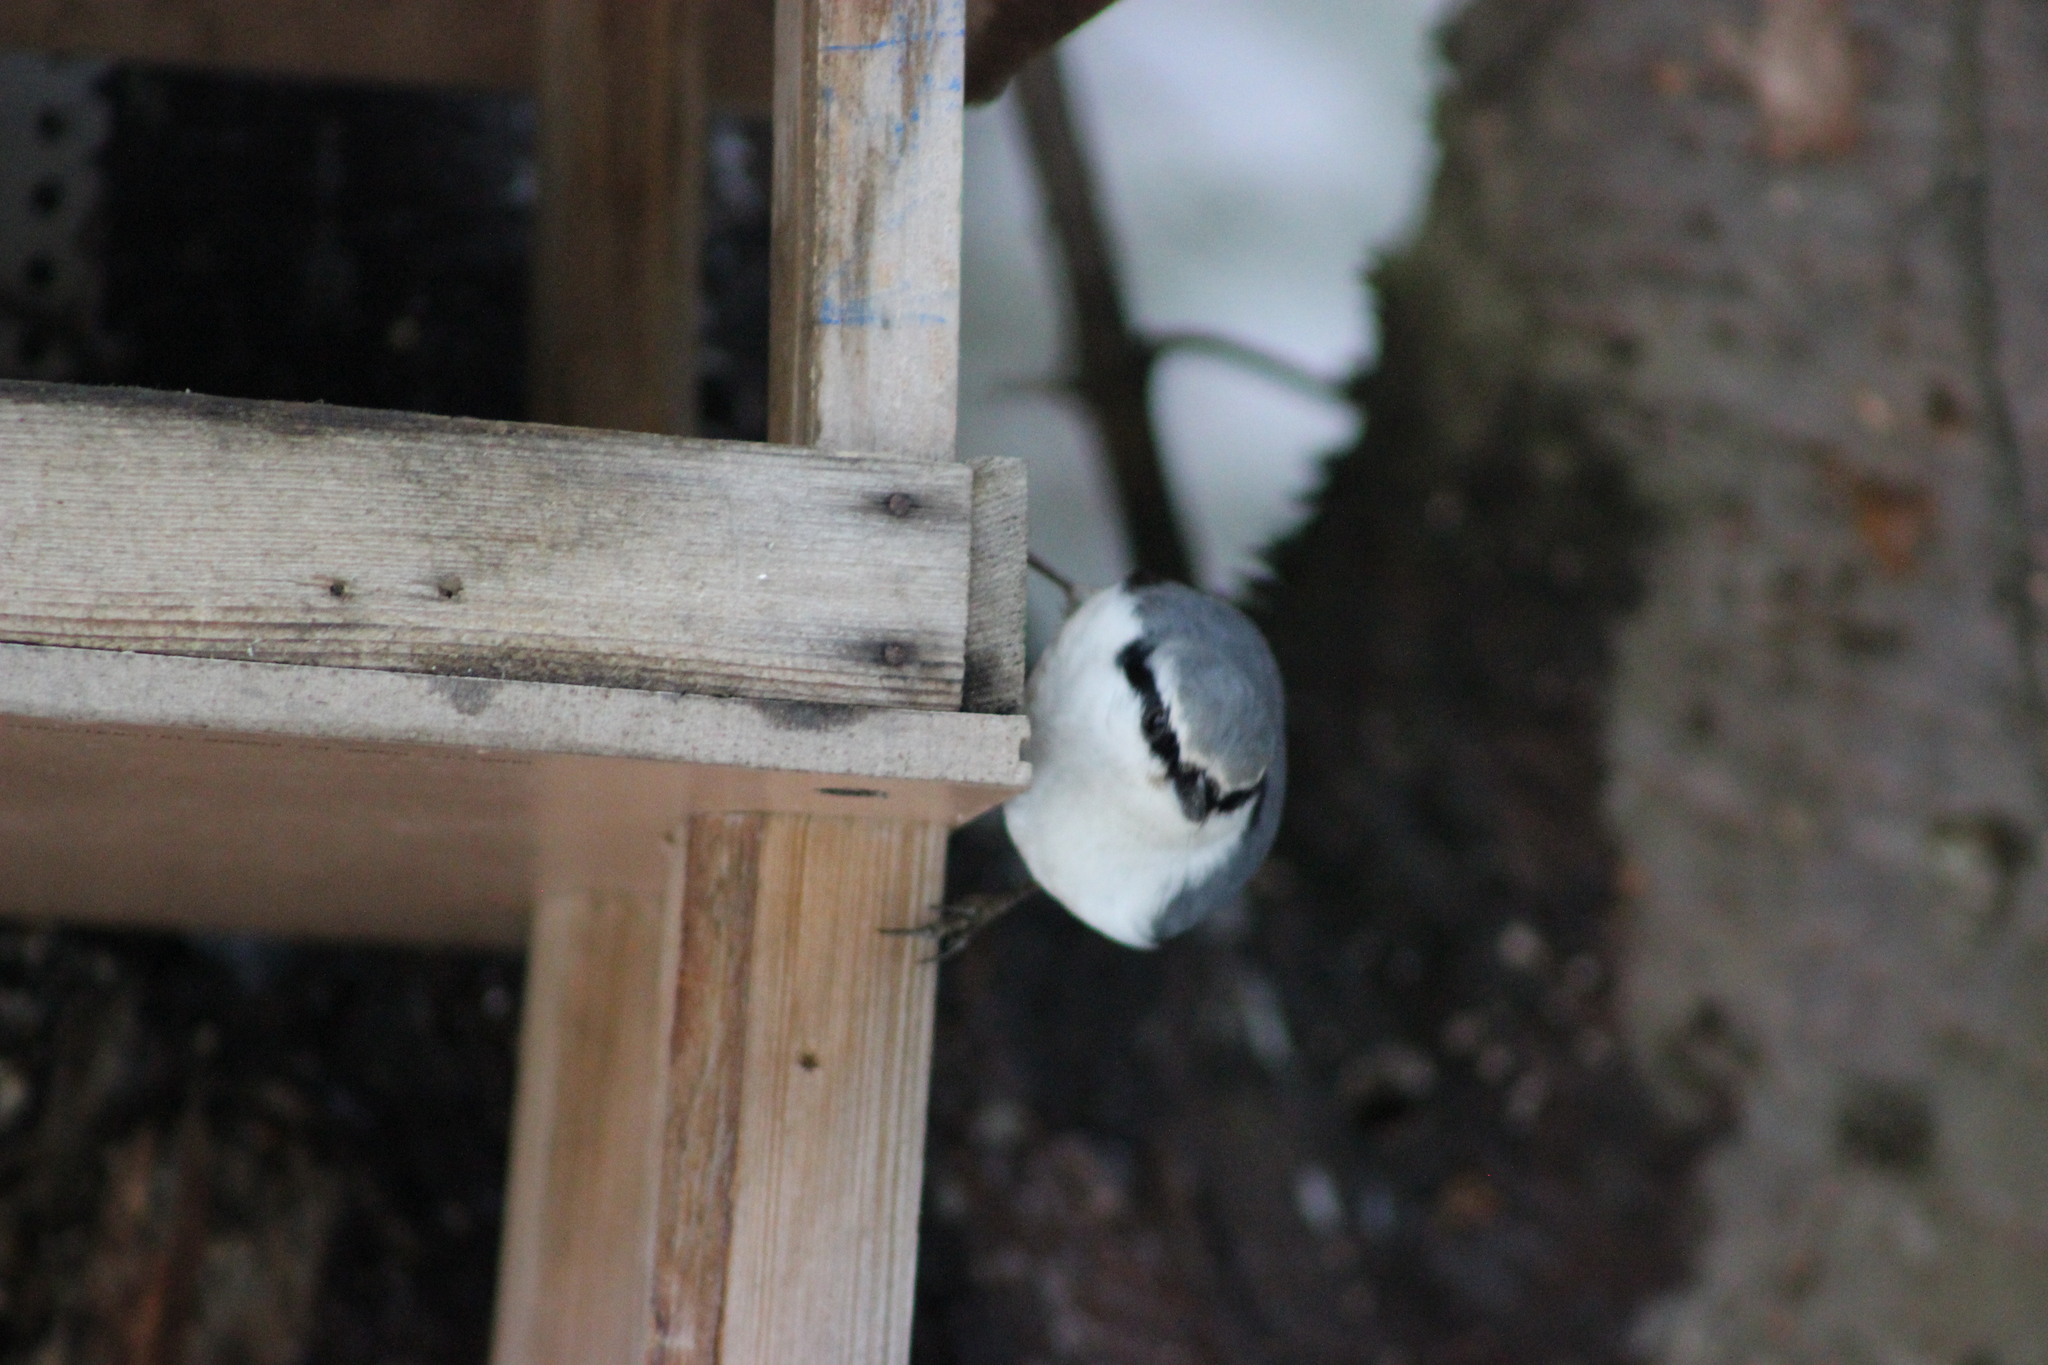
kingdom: Animalia
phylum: Chordata
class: Aves
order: Passeriformes
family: Sittidae
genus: Sitta
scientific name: Sitta europaea
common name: Eurasian nuthatch
